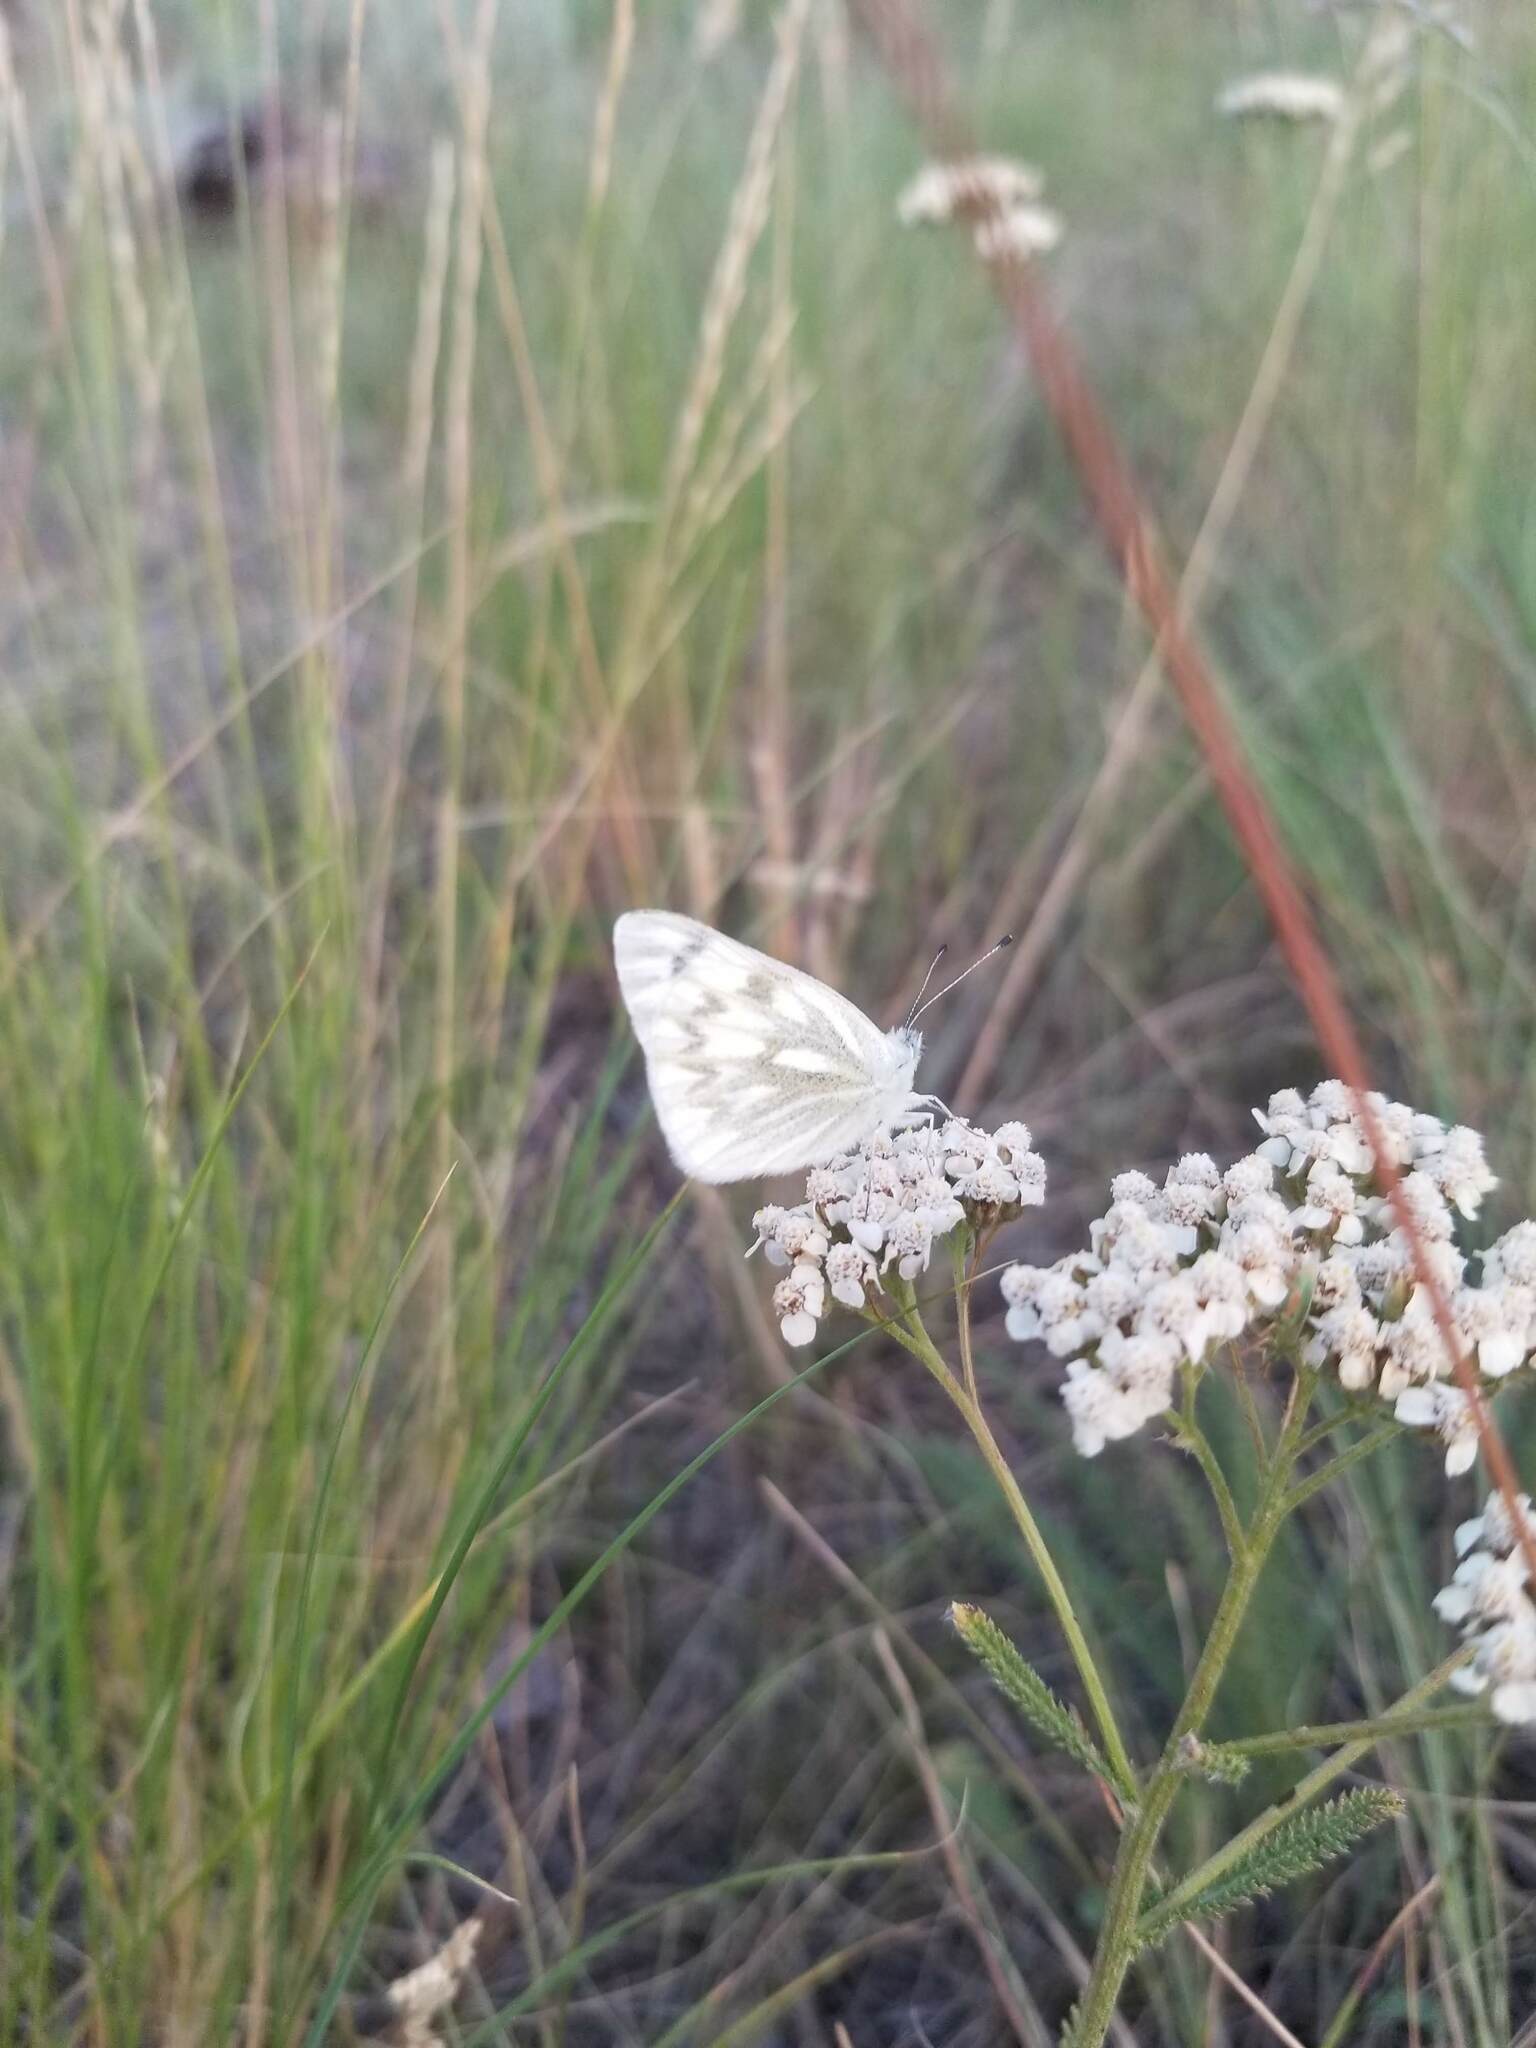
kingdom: Animalia
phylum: Arthropoda
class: Insecta
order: Lepidoptera
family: Pieridae
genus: Pontia
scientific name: Pontia occidentalis
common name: Western white
